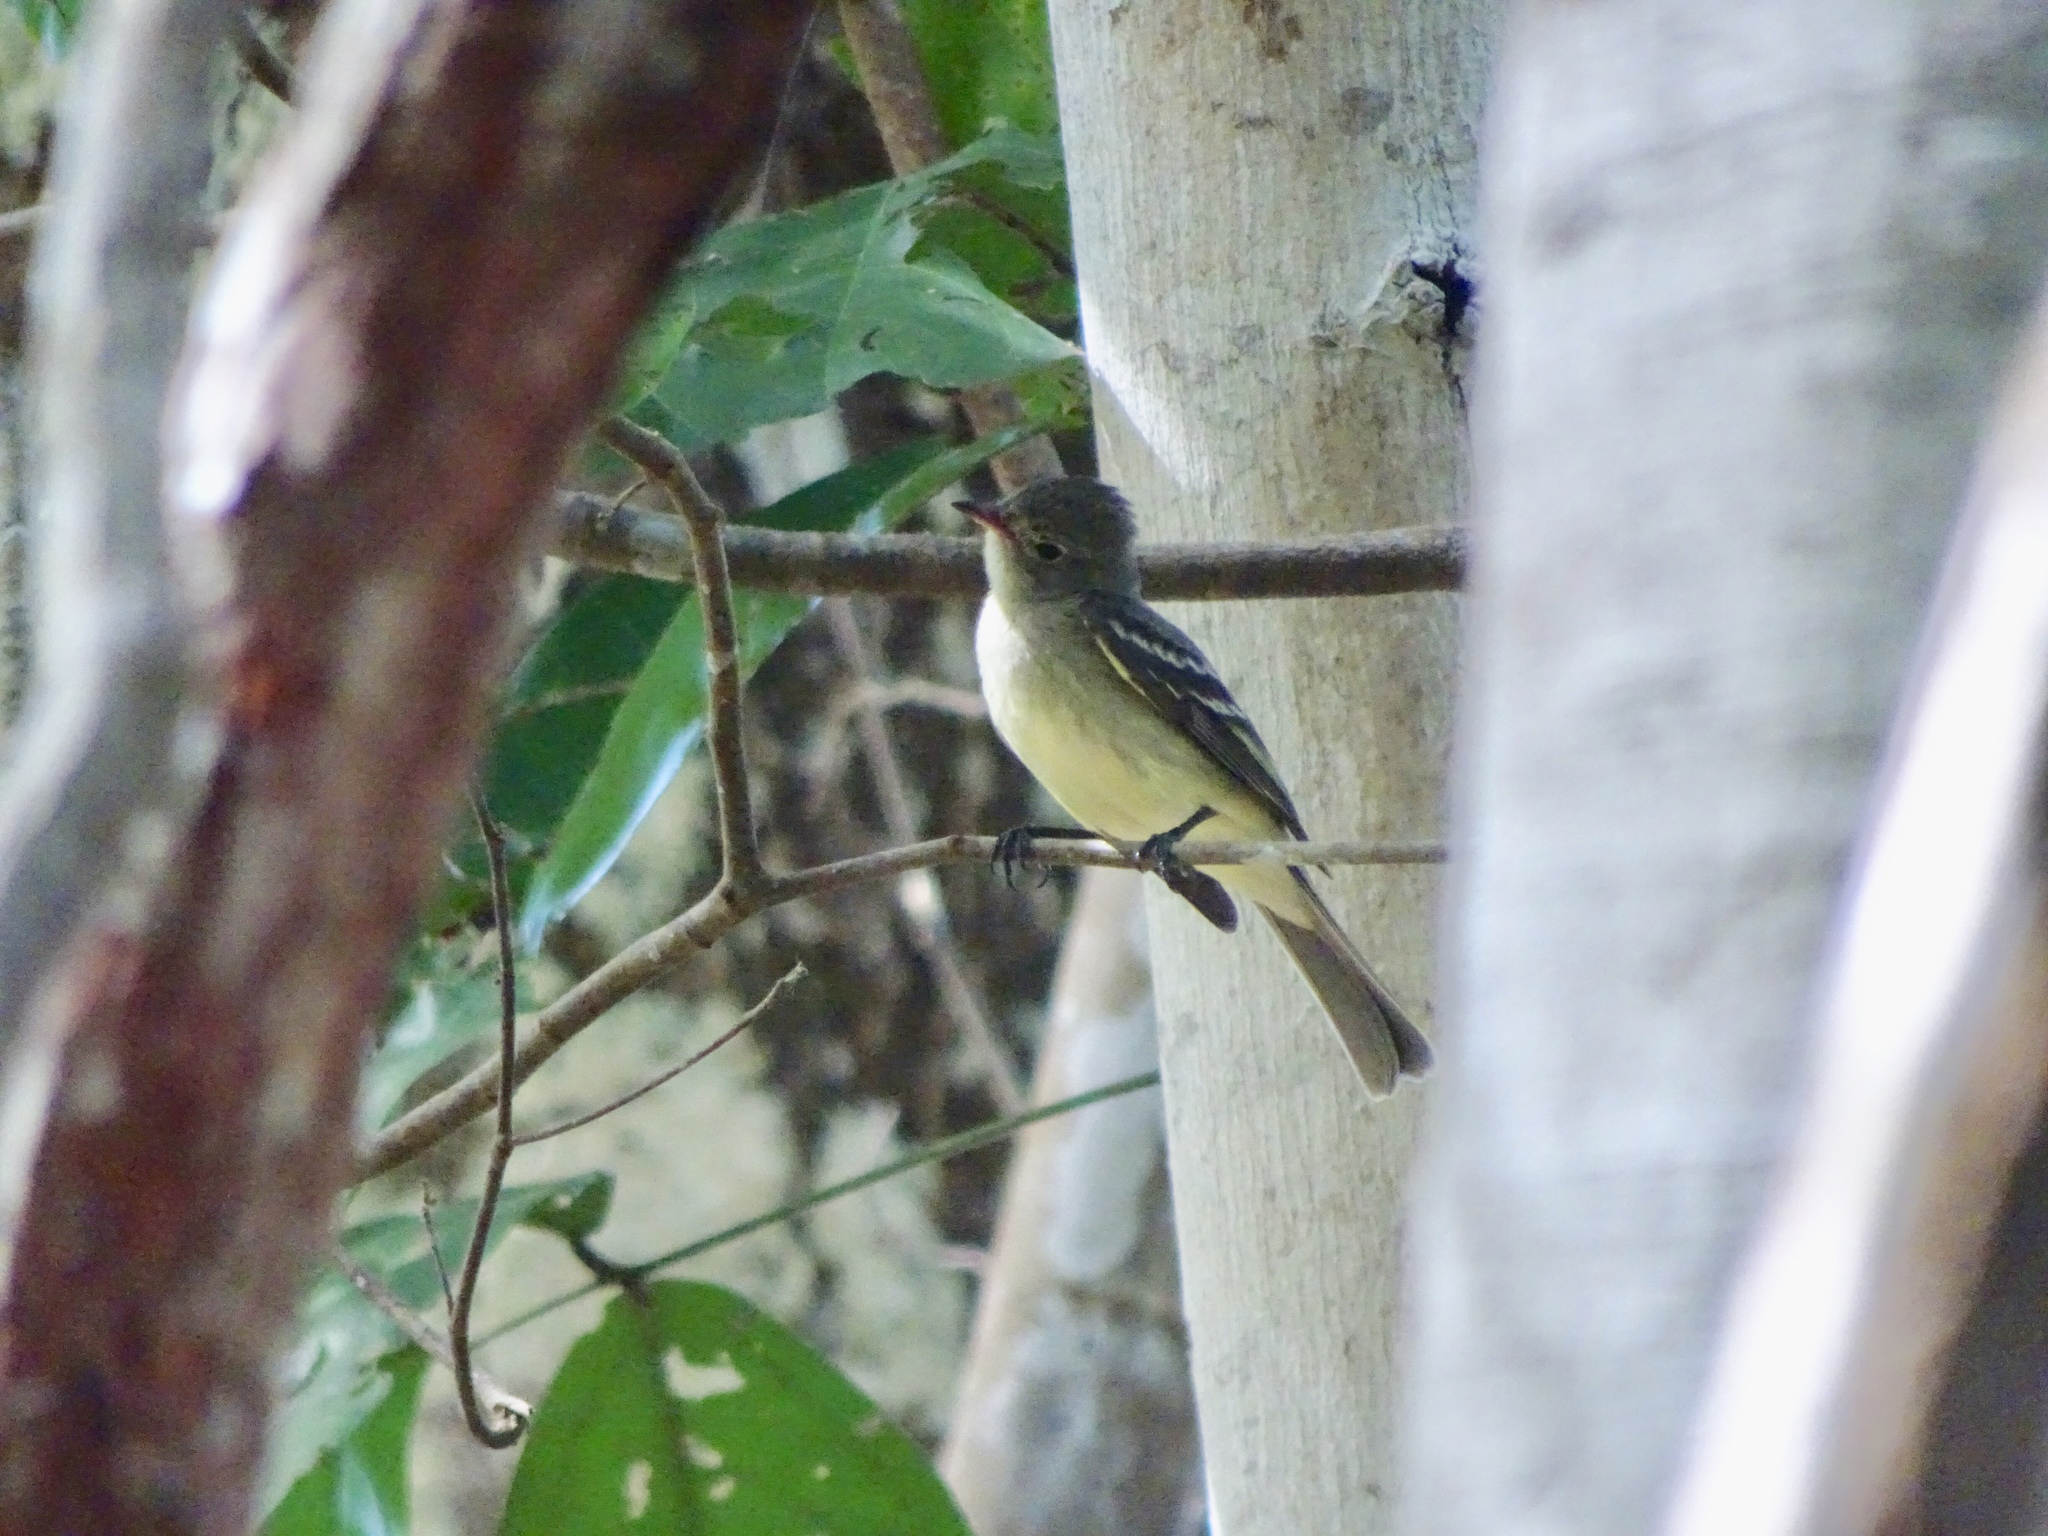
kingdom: Animalia
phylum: Chordata
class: Aves
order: Passeriformes
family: Tyrannidae
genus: Elaenia
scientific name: Elaenia chiriquensis
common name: Lesser elaenia
